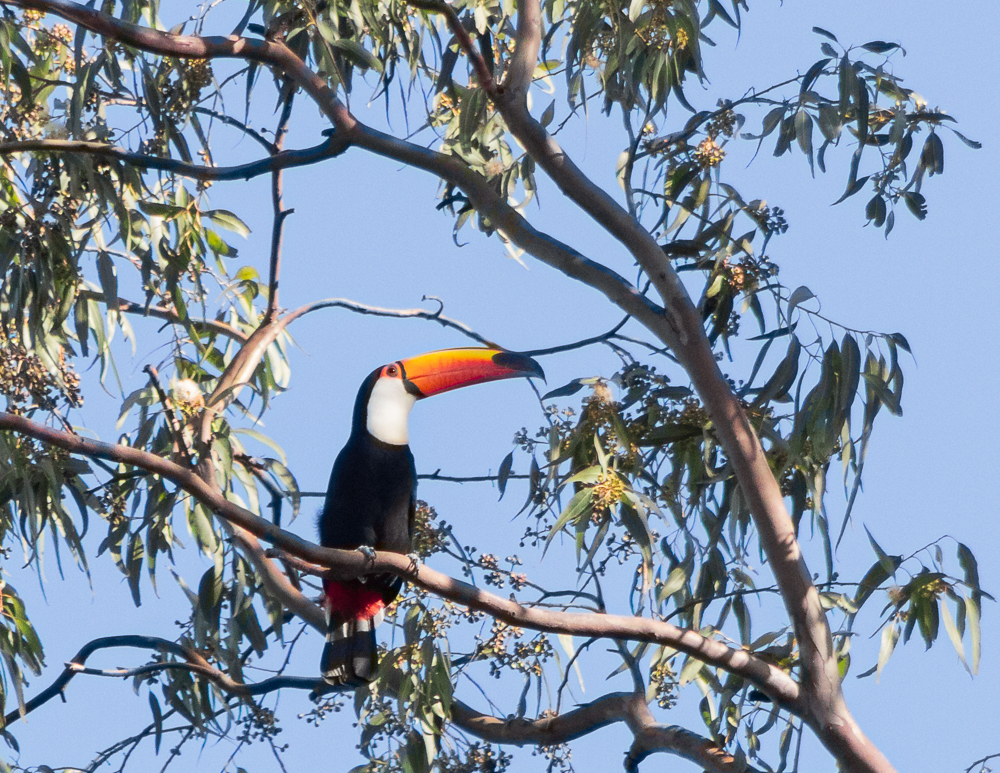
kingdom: Animalia
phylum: Chordata
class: Aves
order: Piciformes
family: Ramphastidae
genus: Ramphastos
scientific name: Ramphastos toco
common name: Toco toucan
